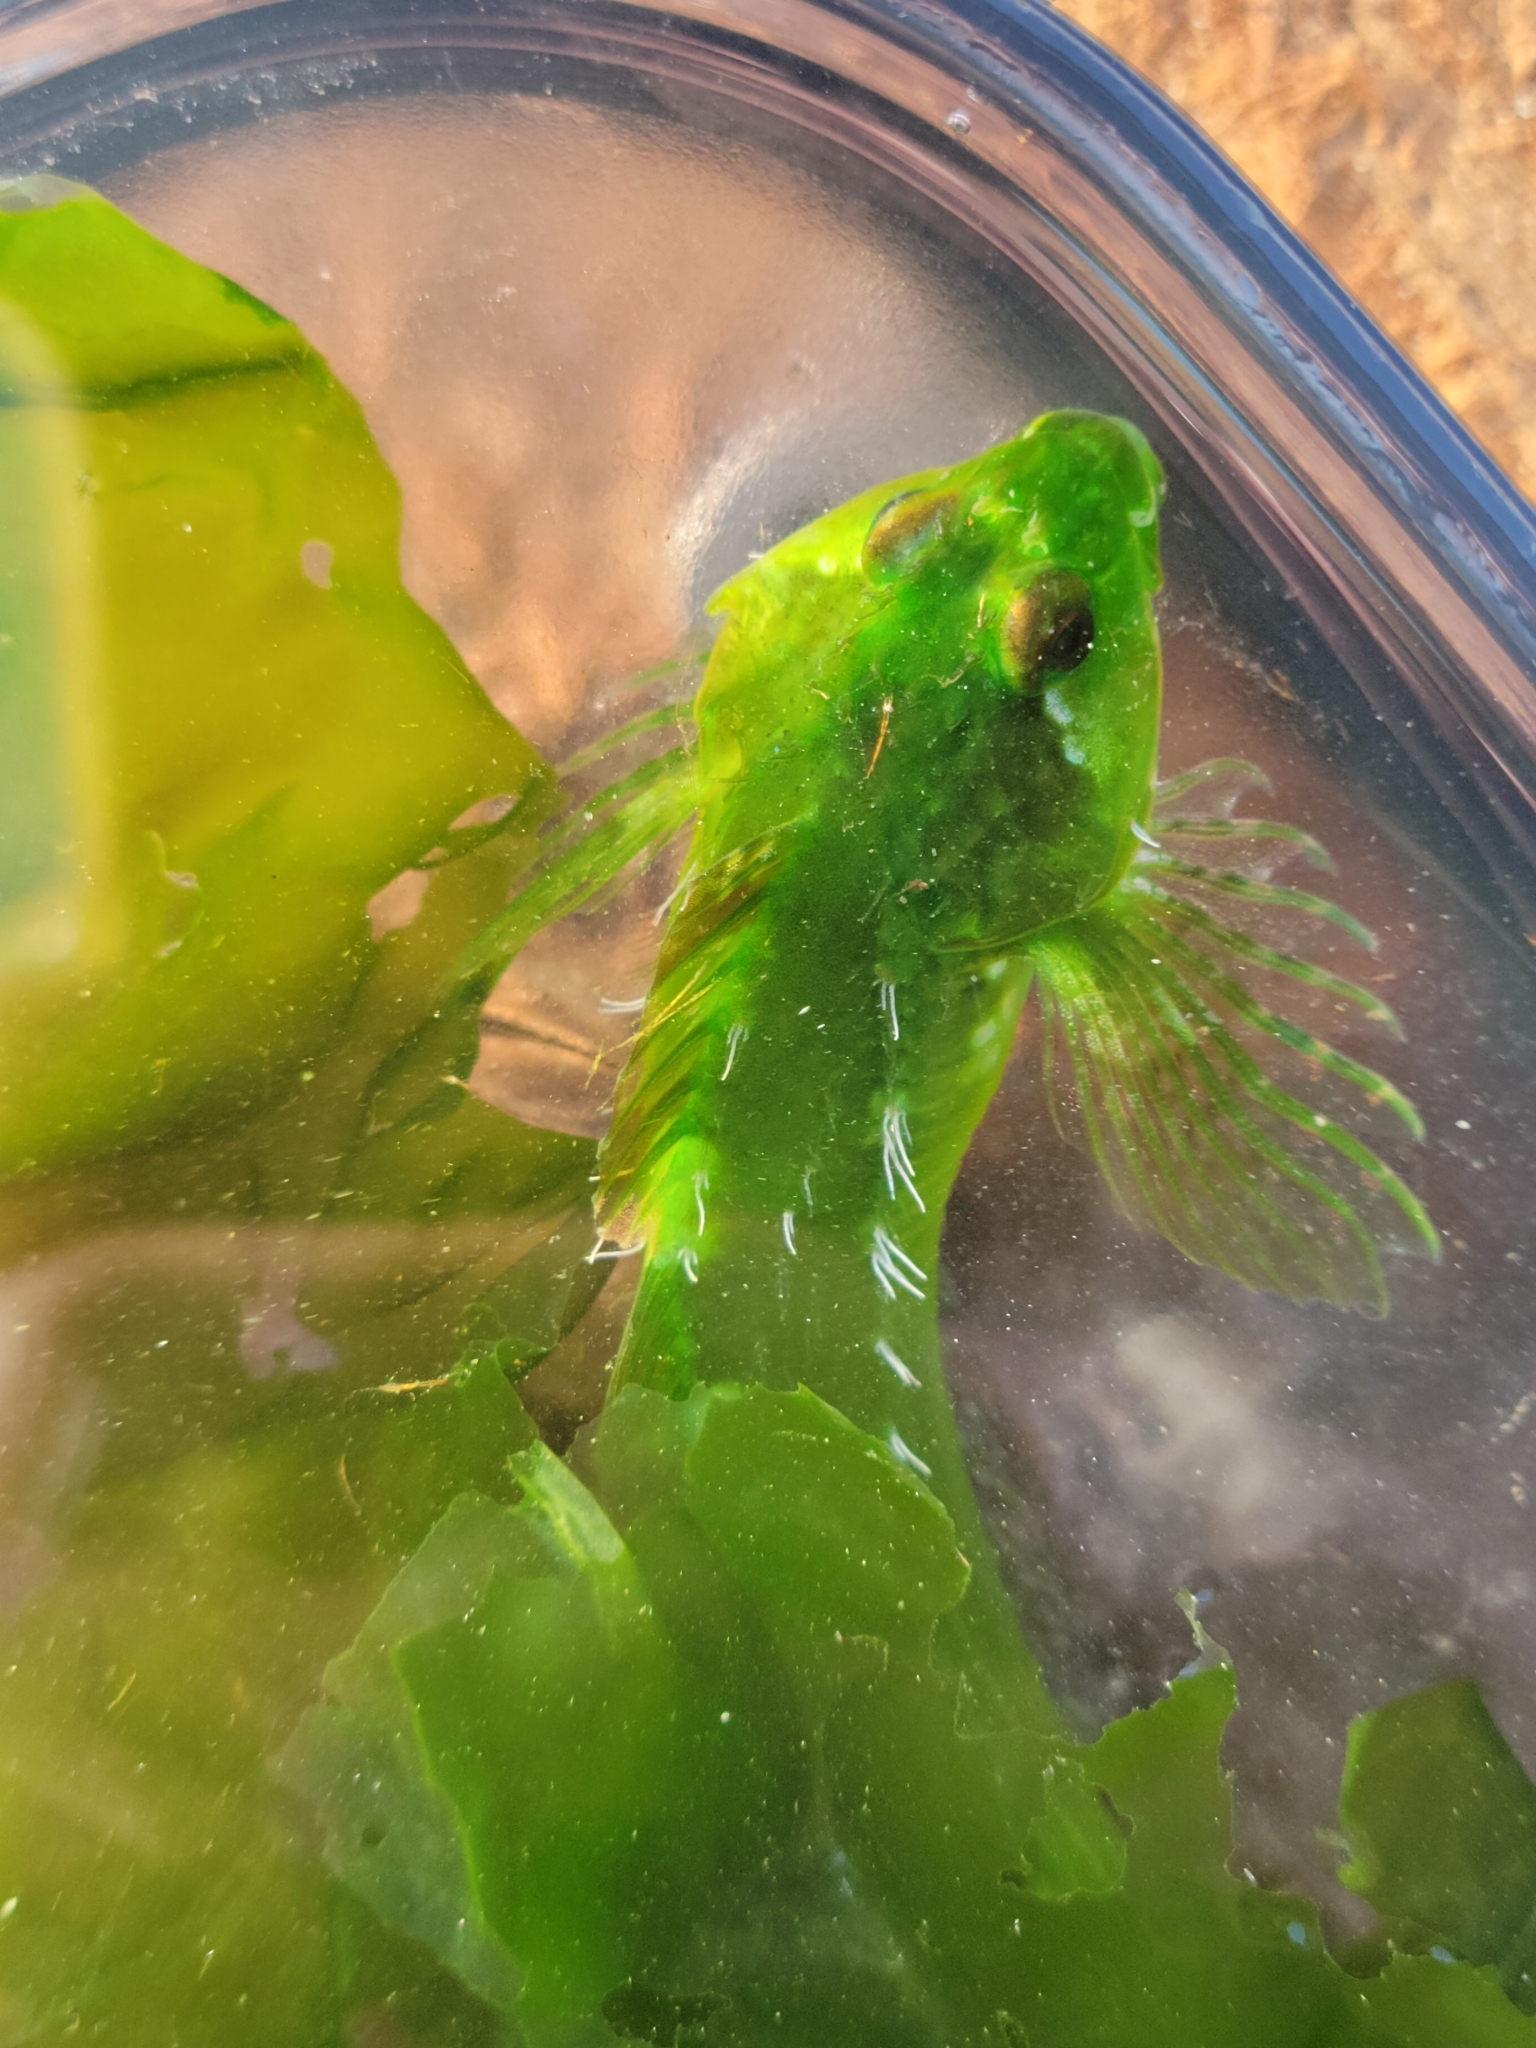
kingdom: Animalia
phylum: Chordata
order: Scorpaeniformes
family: Cottidae
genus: Oligocottus
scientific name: Oligocottus snyderi
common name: Fluffy sculpin
